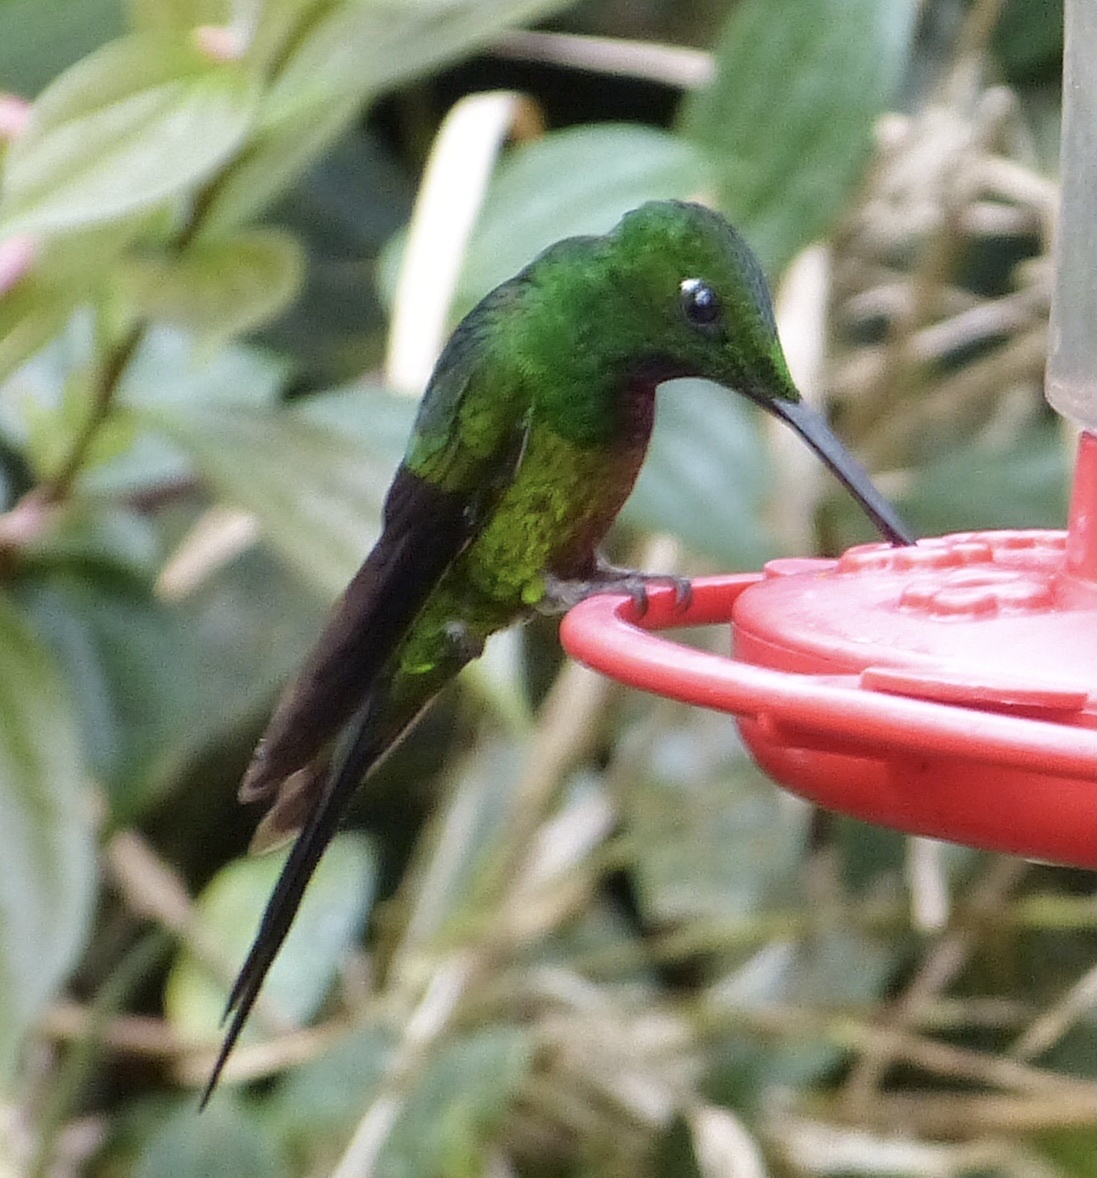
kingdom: Animalia
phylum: Chordata
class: Aves
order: Apodiformes
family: Trochilidae
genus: Heliodoxa
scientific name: Heliodoxa imperatrix
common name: Empress brilliant
